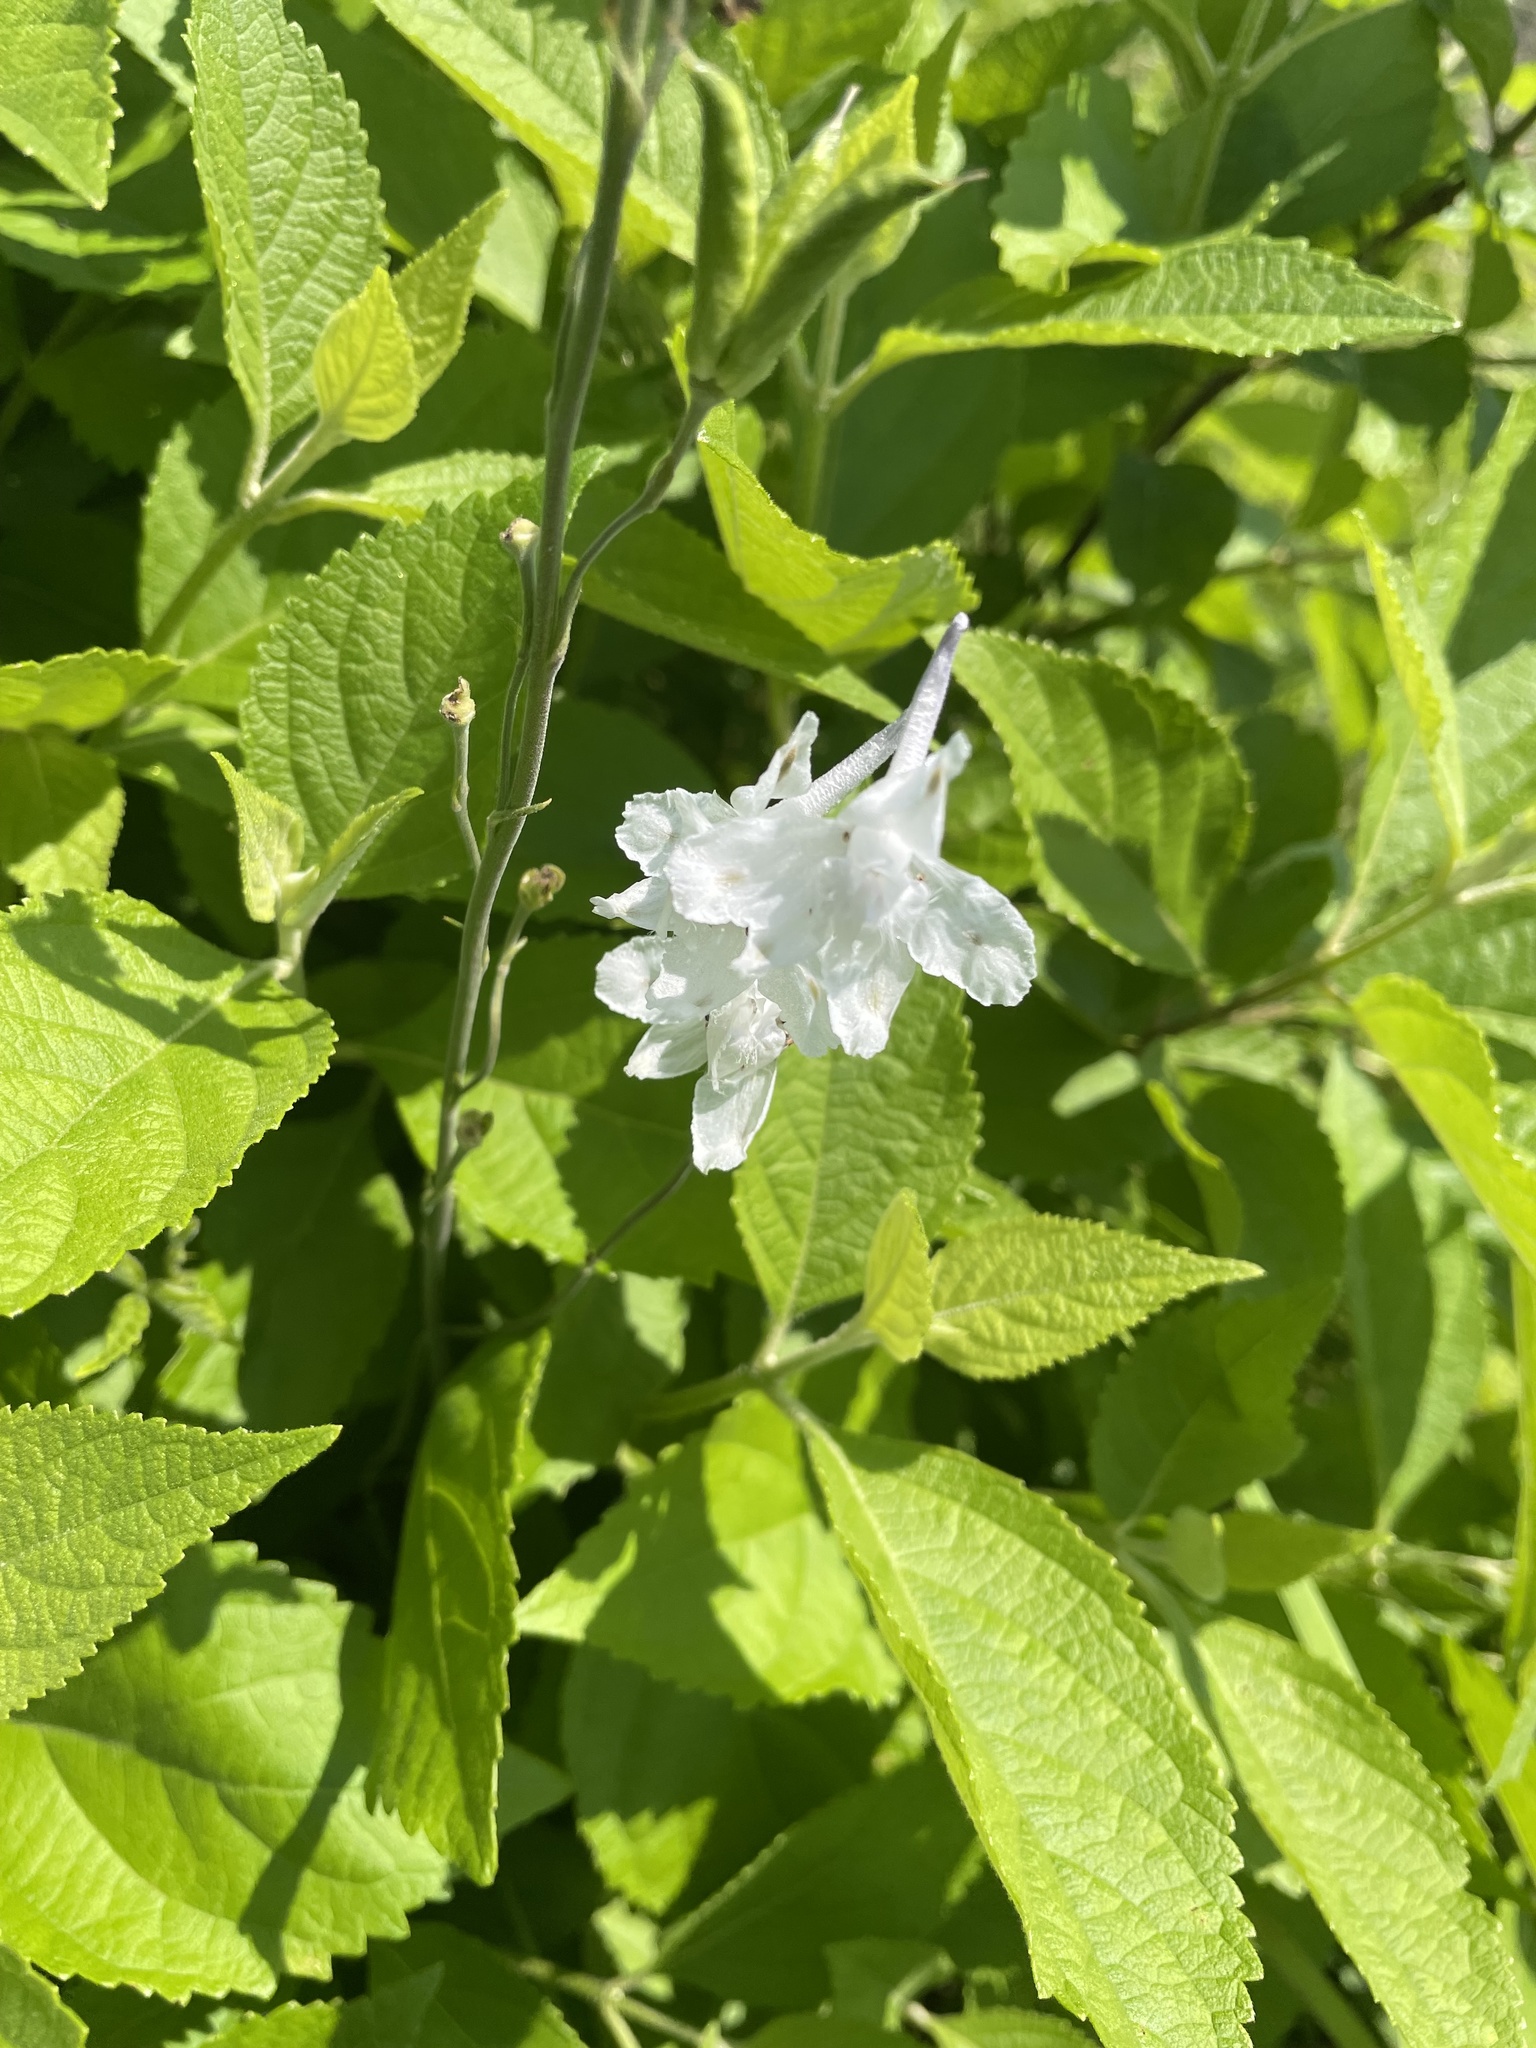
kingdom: Plantae
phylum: Tracheophyta
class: Magnoliopsida
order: Ranunculales
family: Ranunculaceae
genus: Delphinium
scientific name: Delphinium carolinianum
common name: Carolina larkspur
